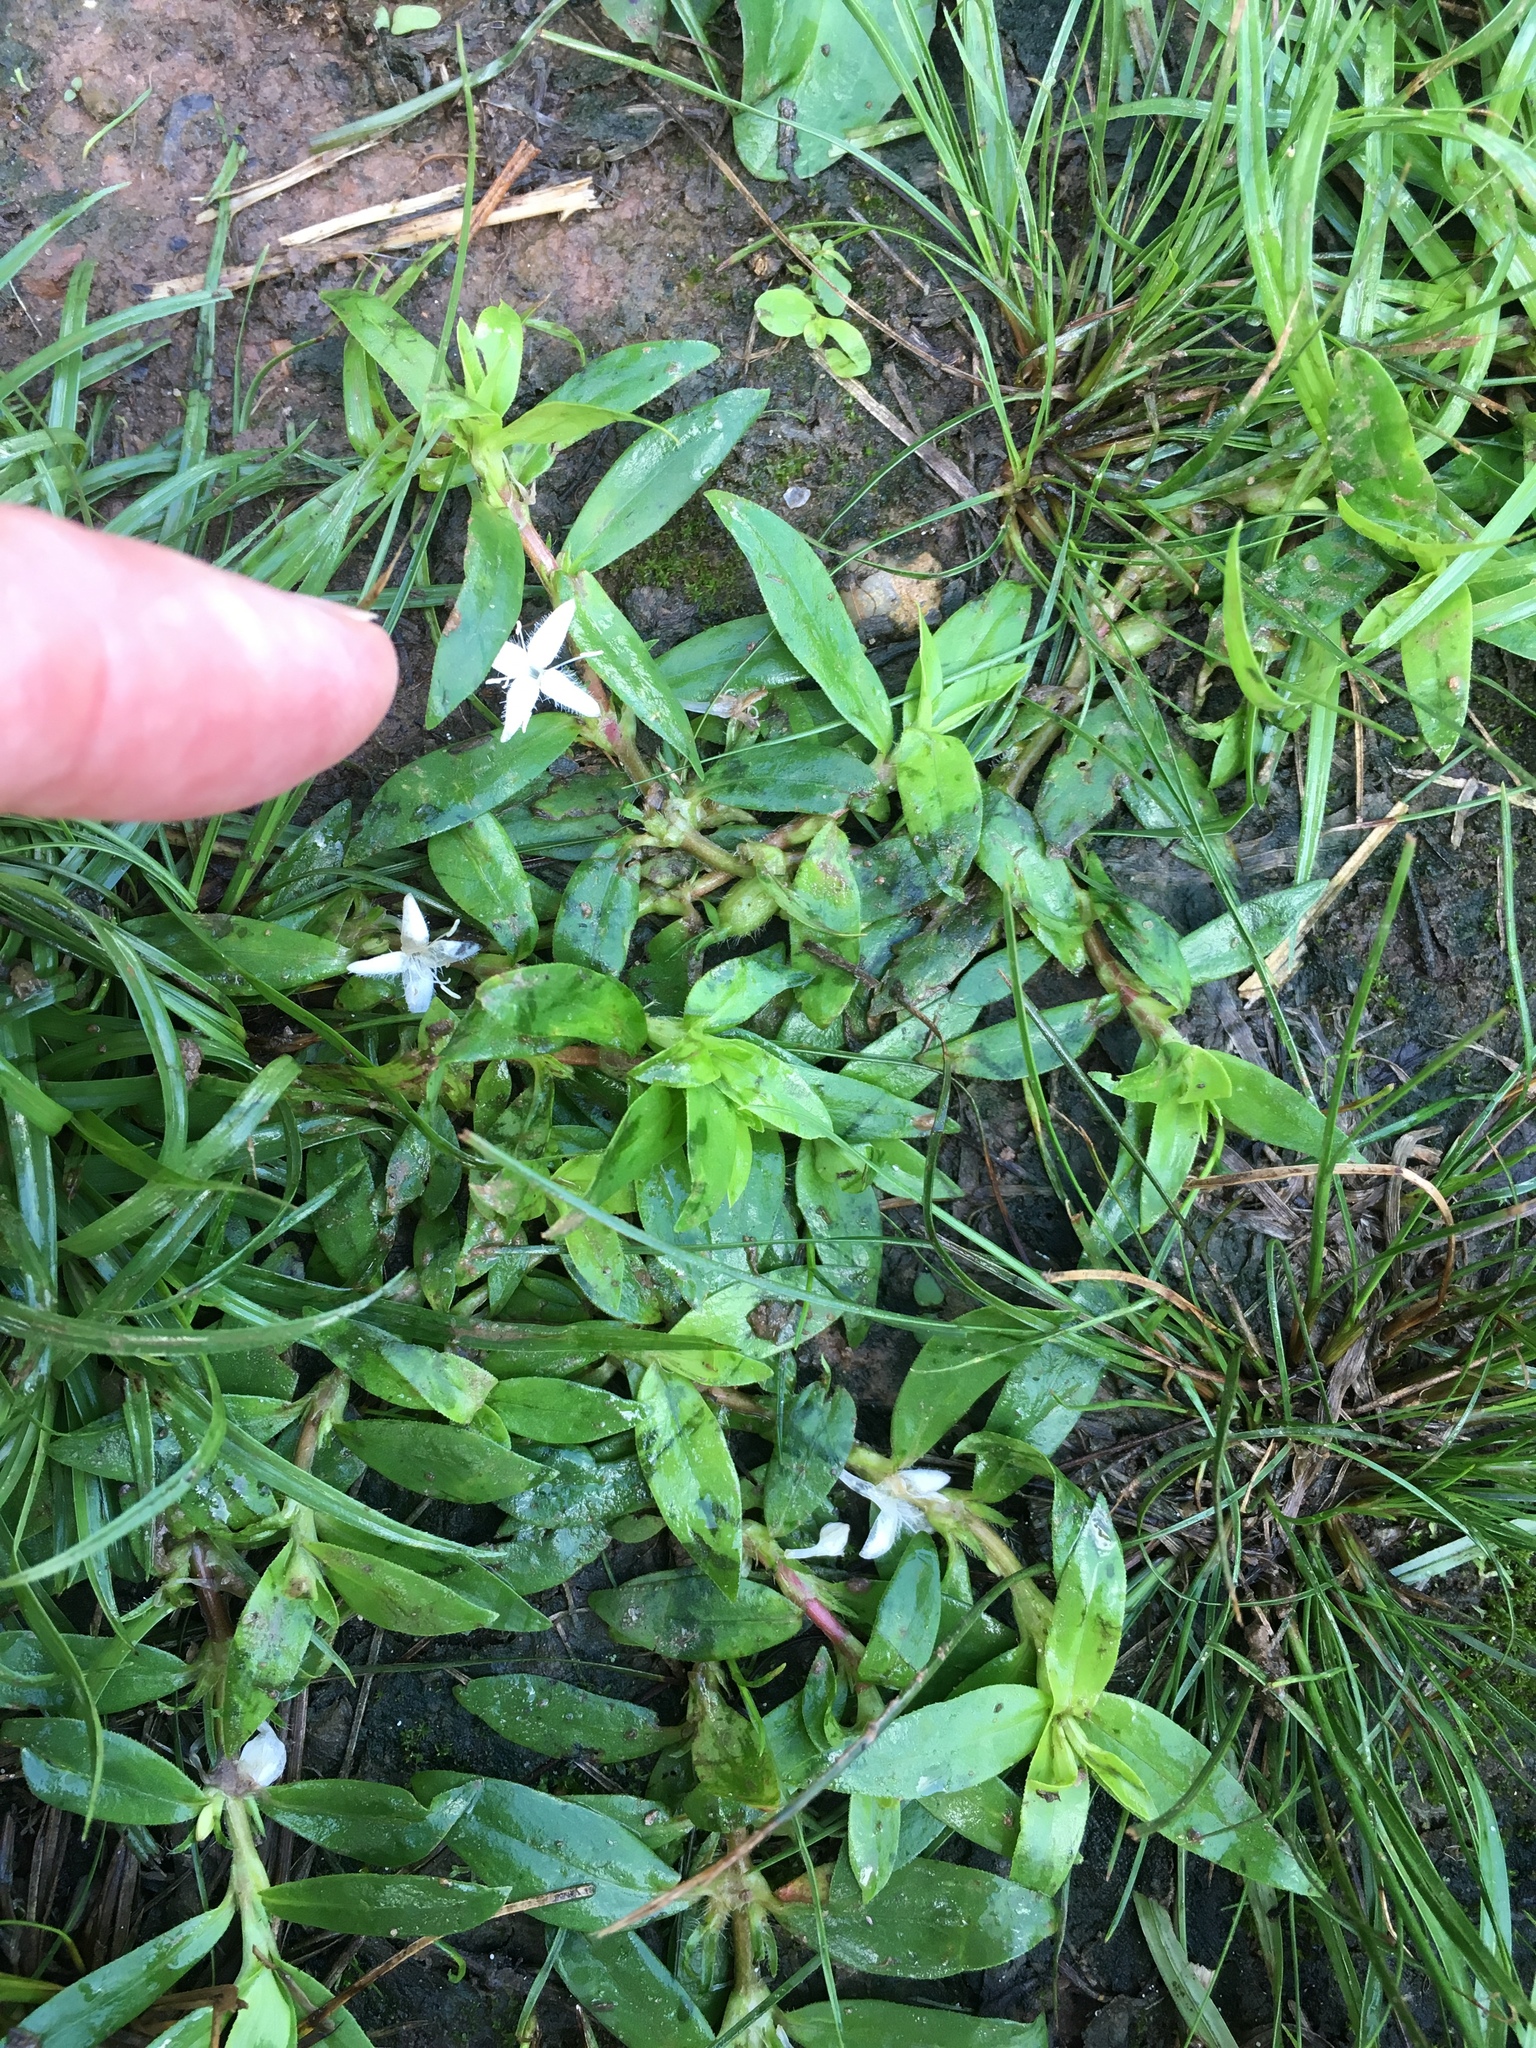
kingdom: Plantae
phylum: Tracheophyta
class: Magnoliopsida
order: Gentianales
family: Rubiaceae
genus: Diodia
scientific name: Diodia virginiana
